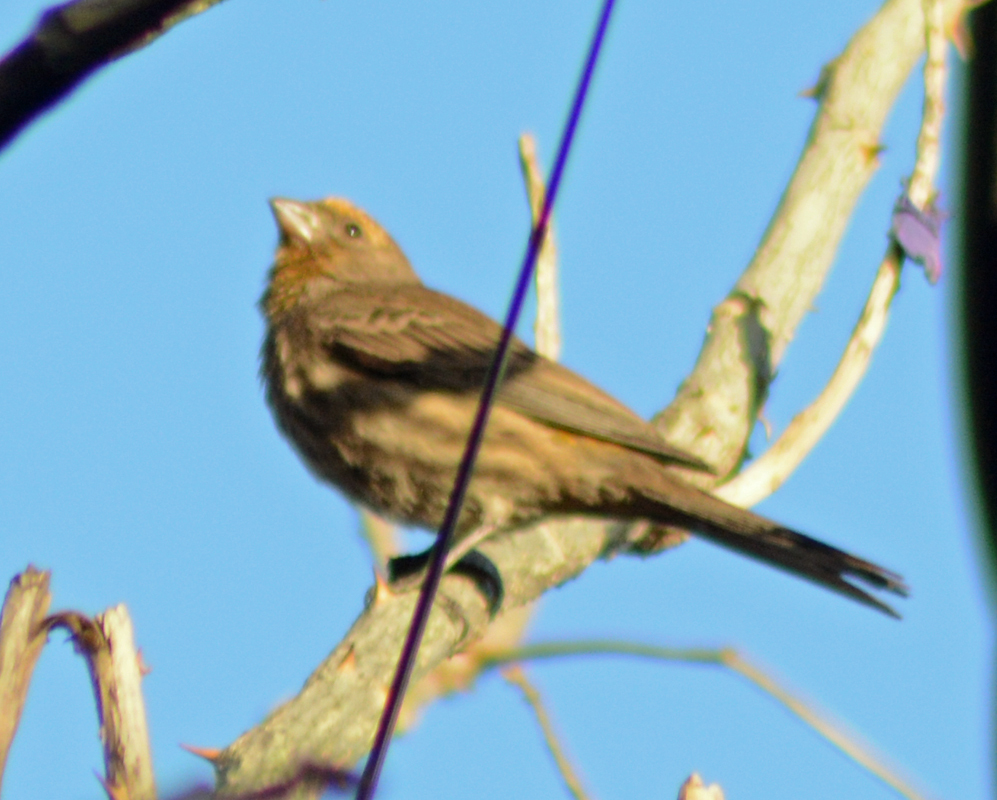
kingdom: Animalia
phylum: Chordata
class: Aves
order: Passeriformes
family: Fringillidae
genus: Haemorhous
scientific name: Haemorhous mexicanus
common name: House finch
